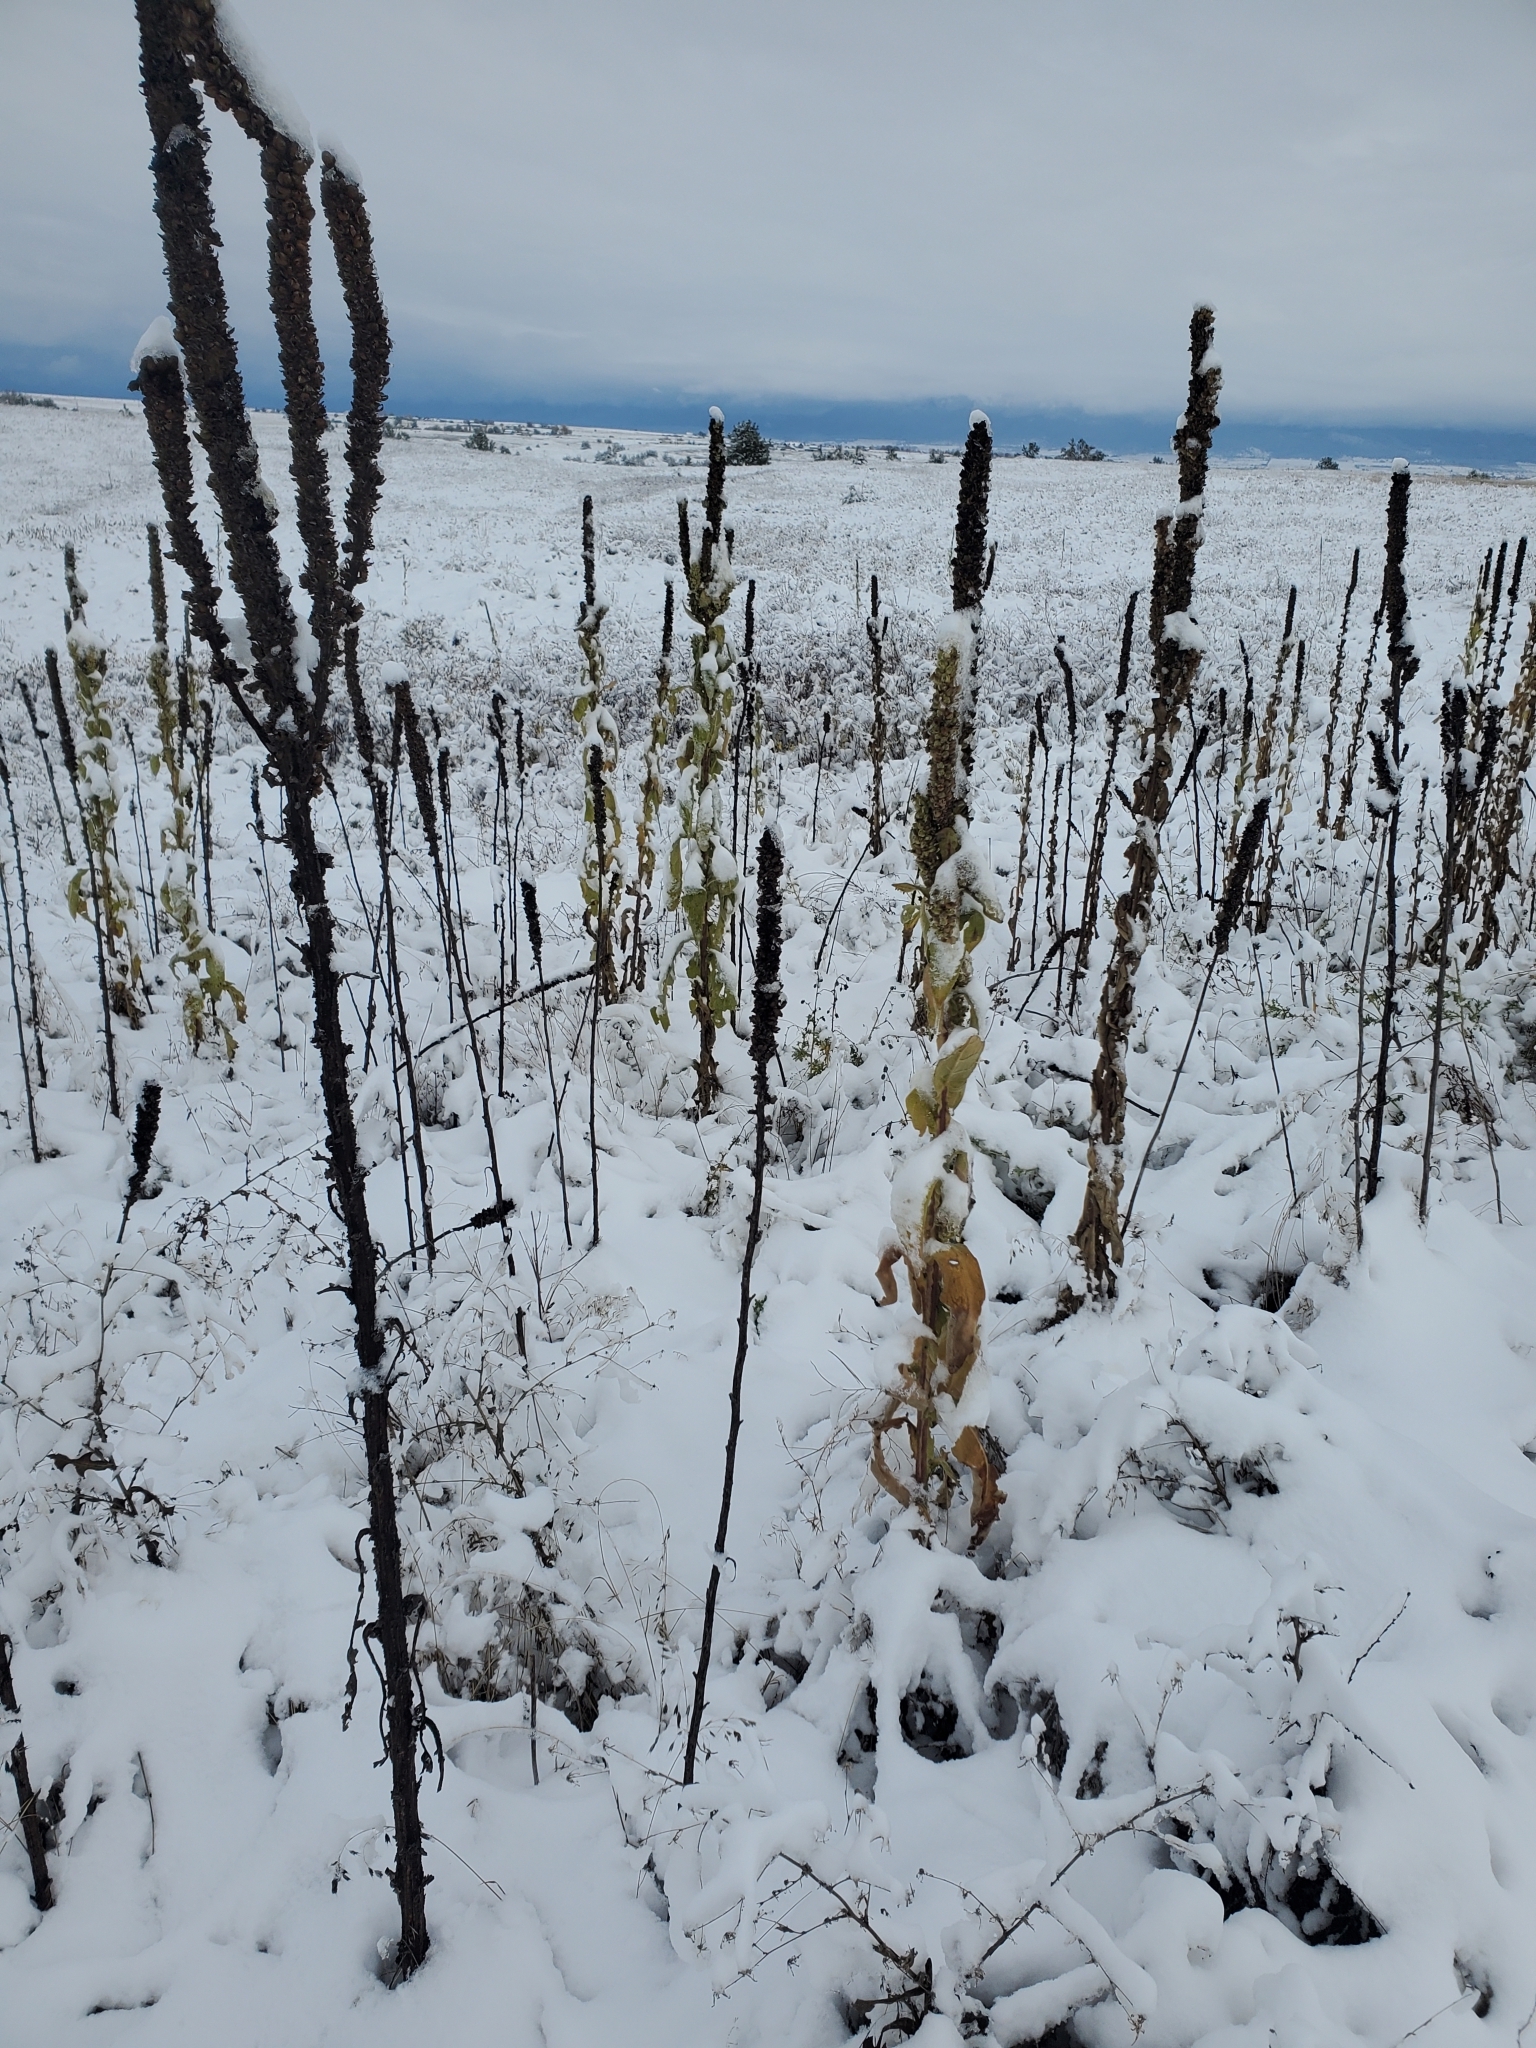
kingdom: Plantae
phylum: Tracheophyta
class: Magnoliopsida
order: Lamiales
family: Scrophulariaceae
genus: Verbascum
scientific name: Verbascum thapsus
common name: Common mullein
